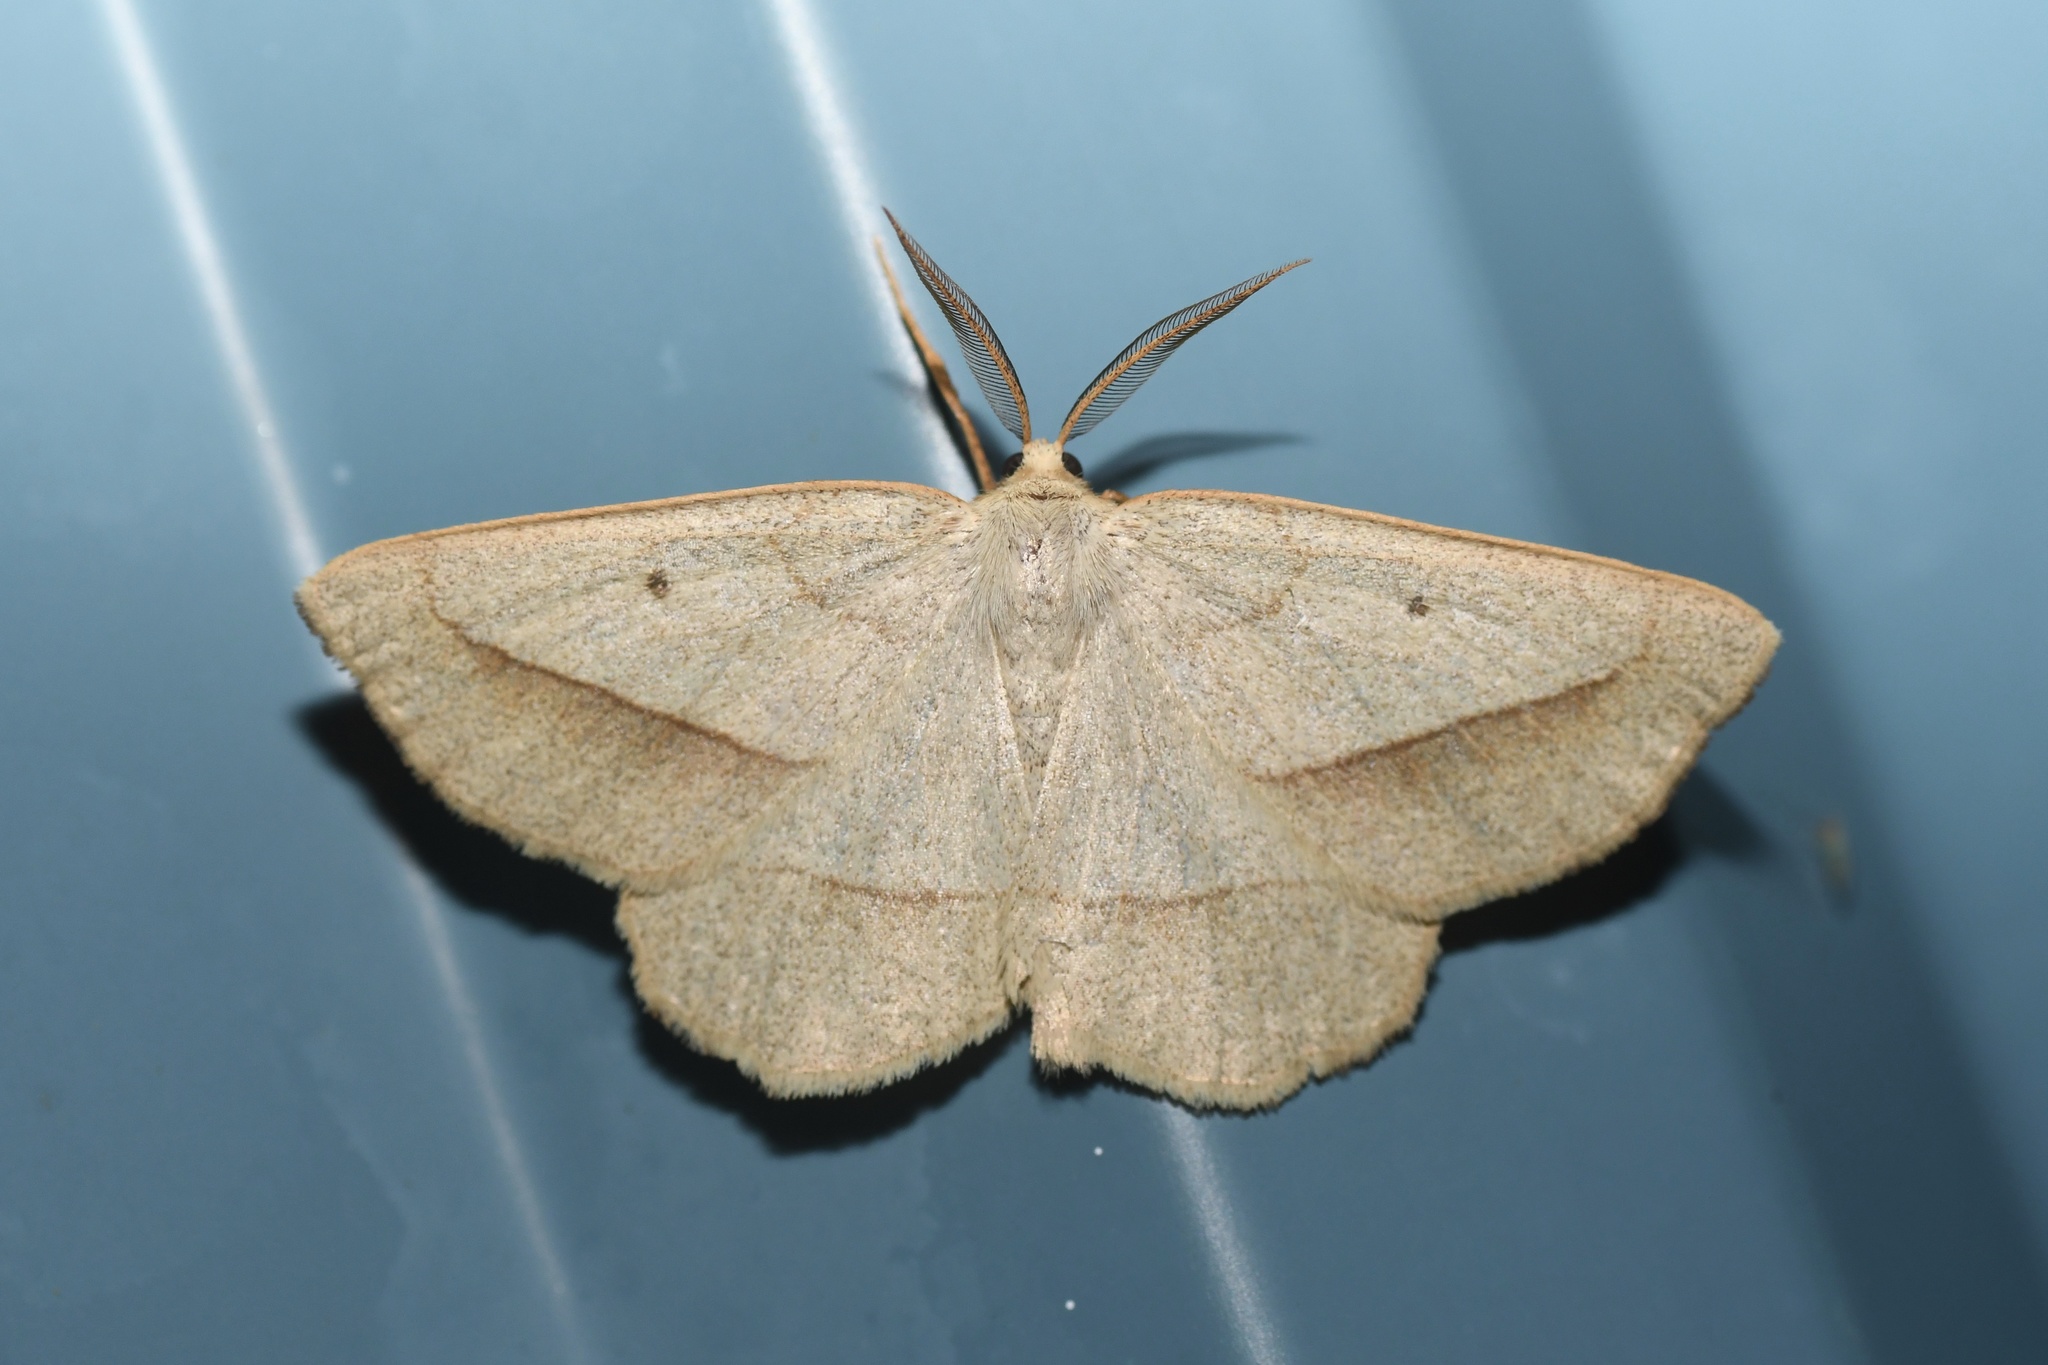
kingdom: Animalia
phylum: Arthropoda
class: Insecta
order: Lepidoptera
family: Geometridae
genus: Euchlaena
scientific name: Euchlaena irraria
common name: Least-marked euchlaena
